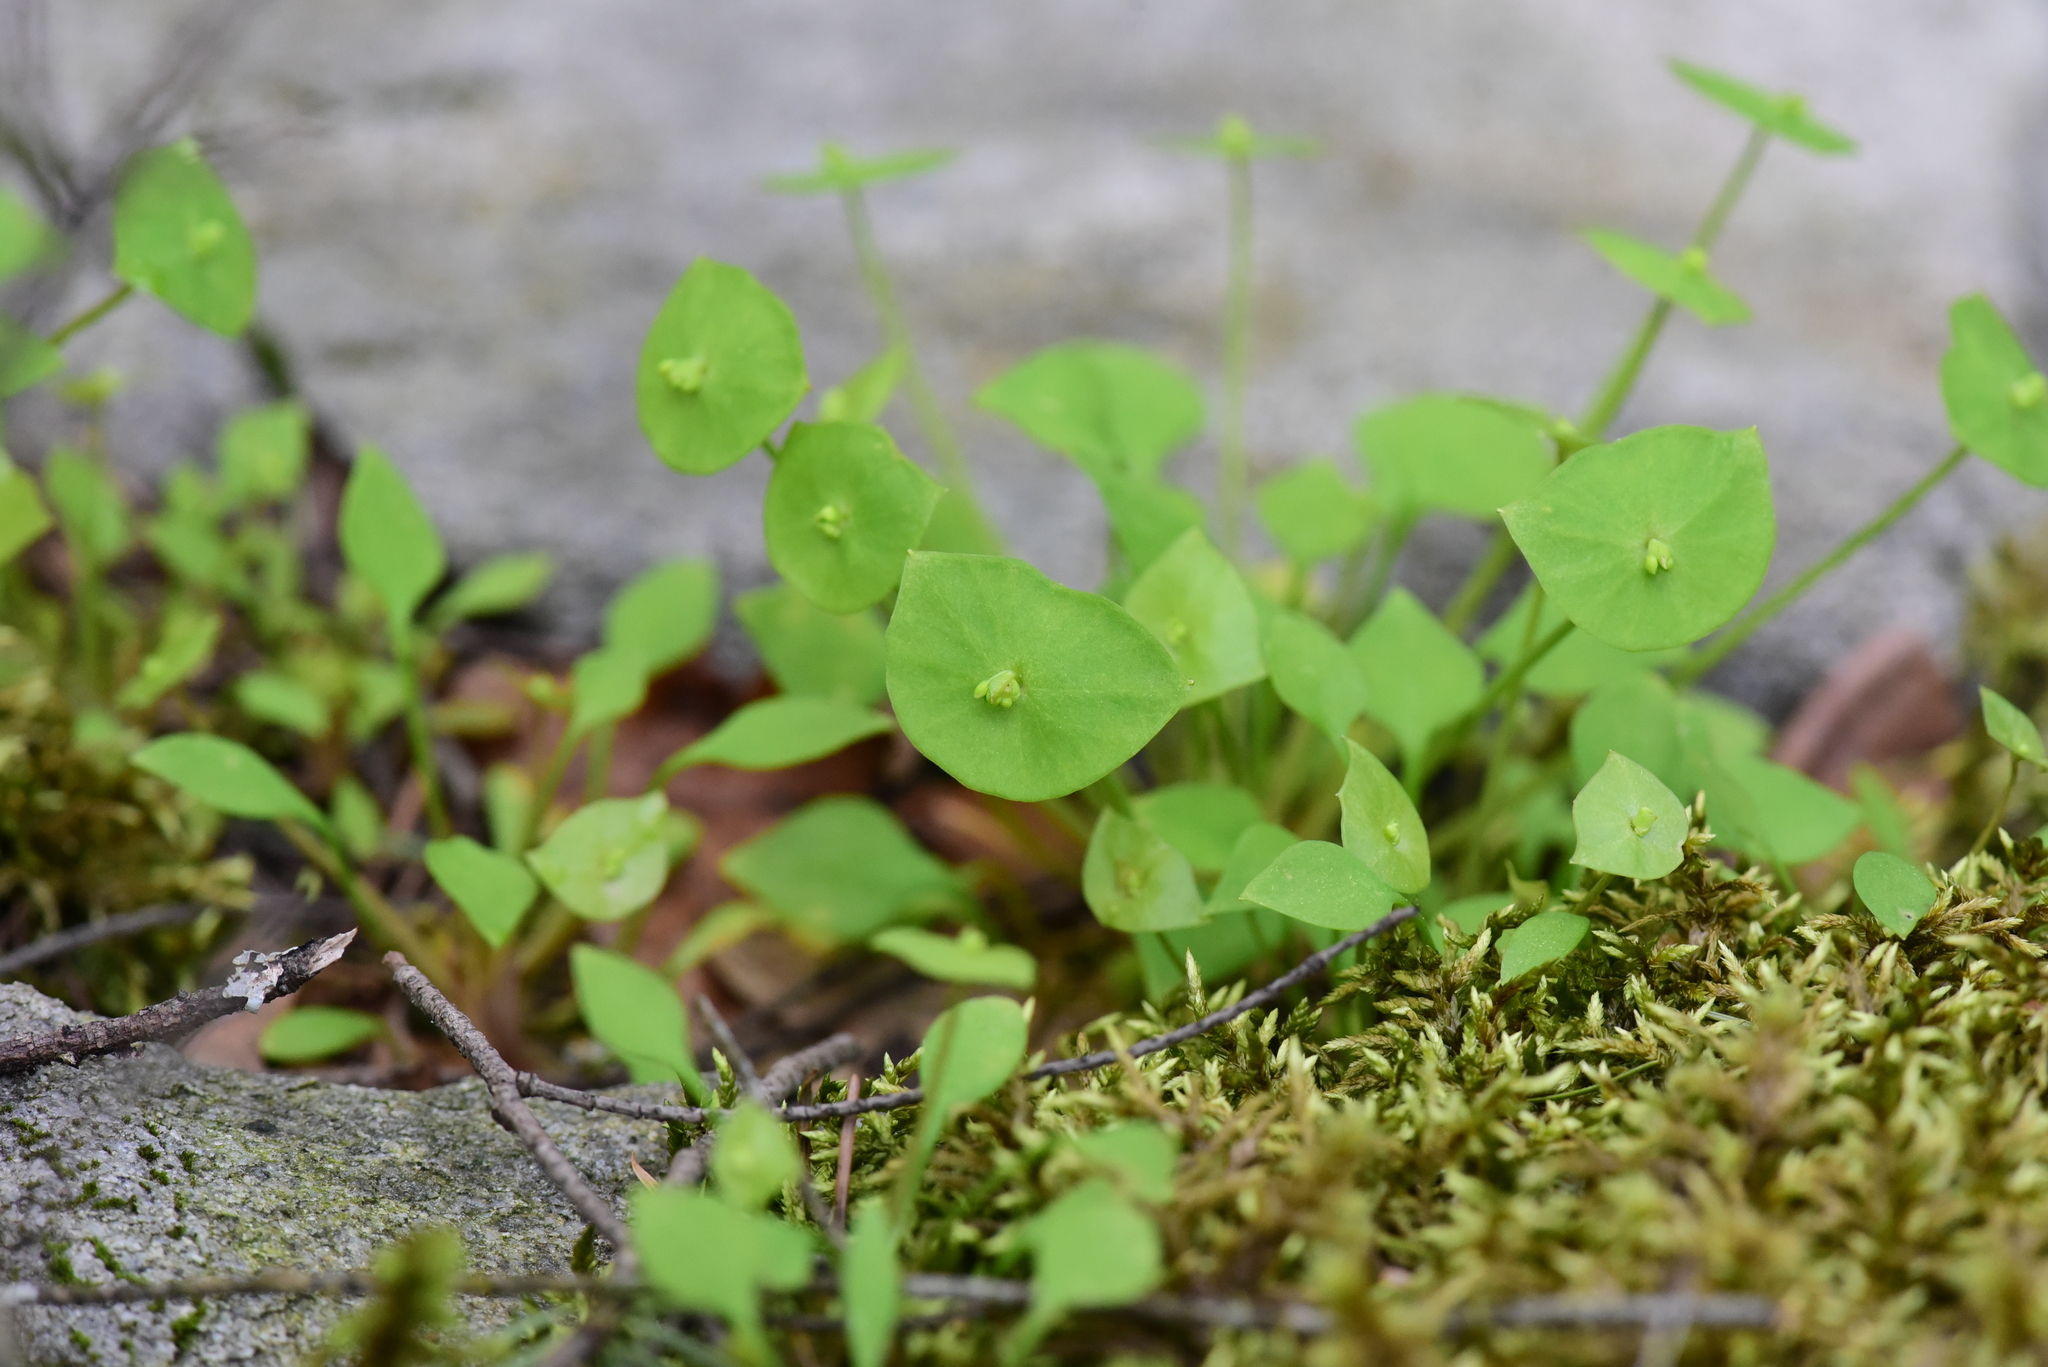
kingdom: Plantae
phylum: Tracheophyta
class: Magnoliopsida
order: Caryophyllales
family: Montiaceae
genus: Claytonia
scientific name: Claytonia perfoliata
